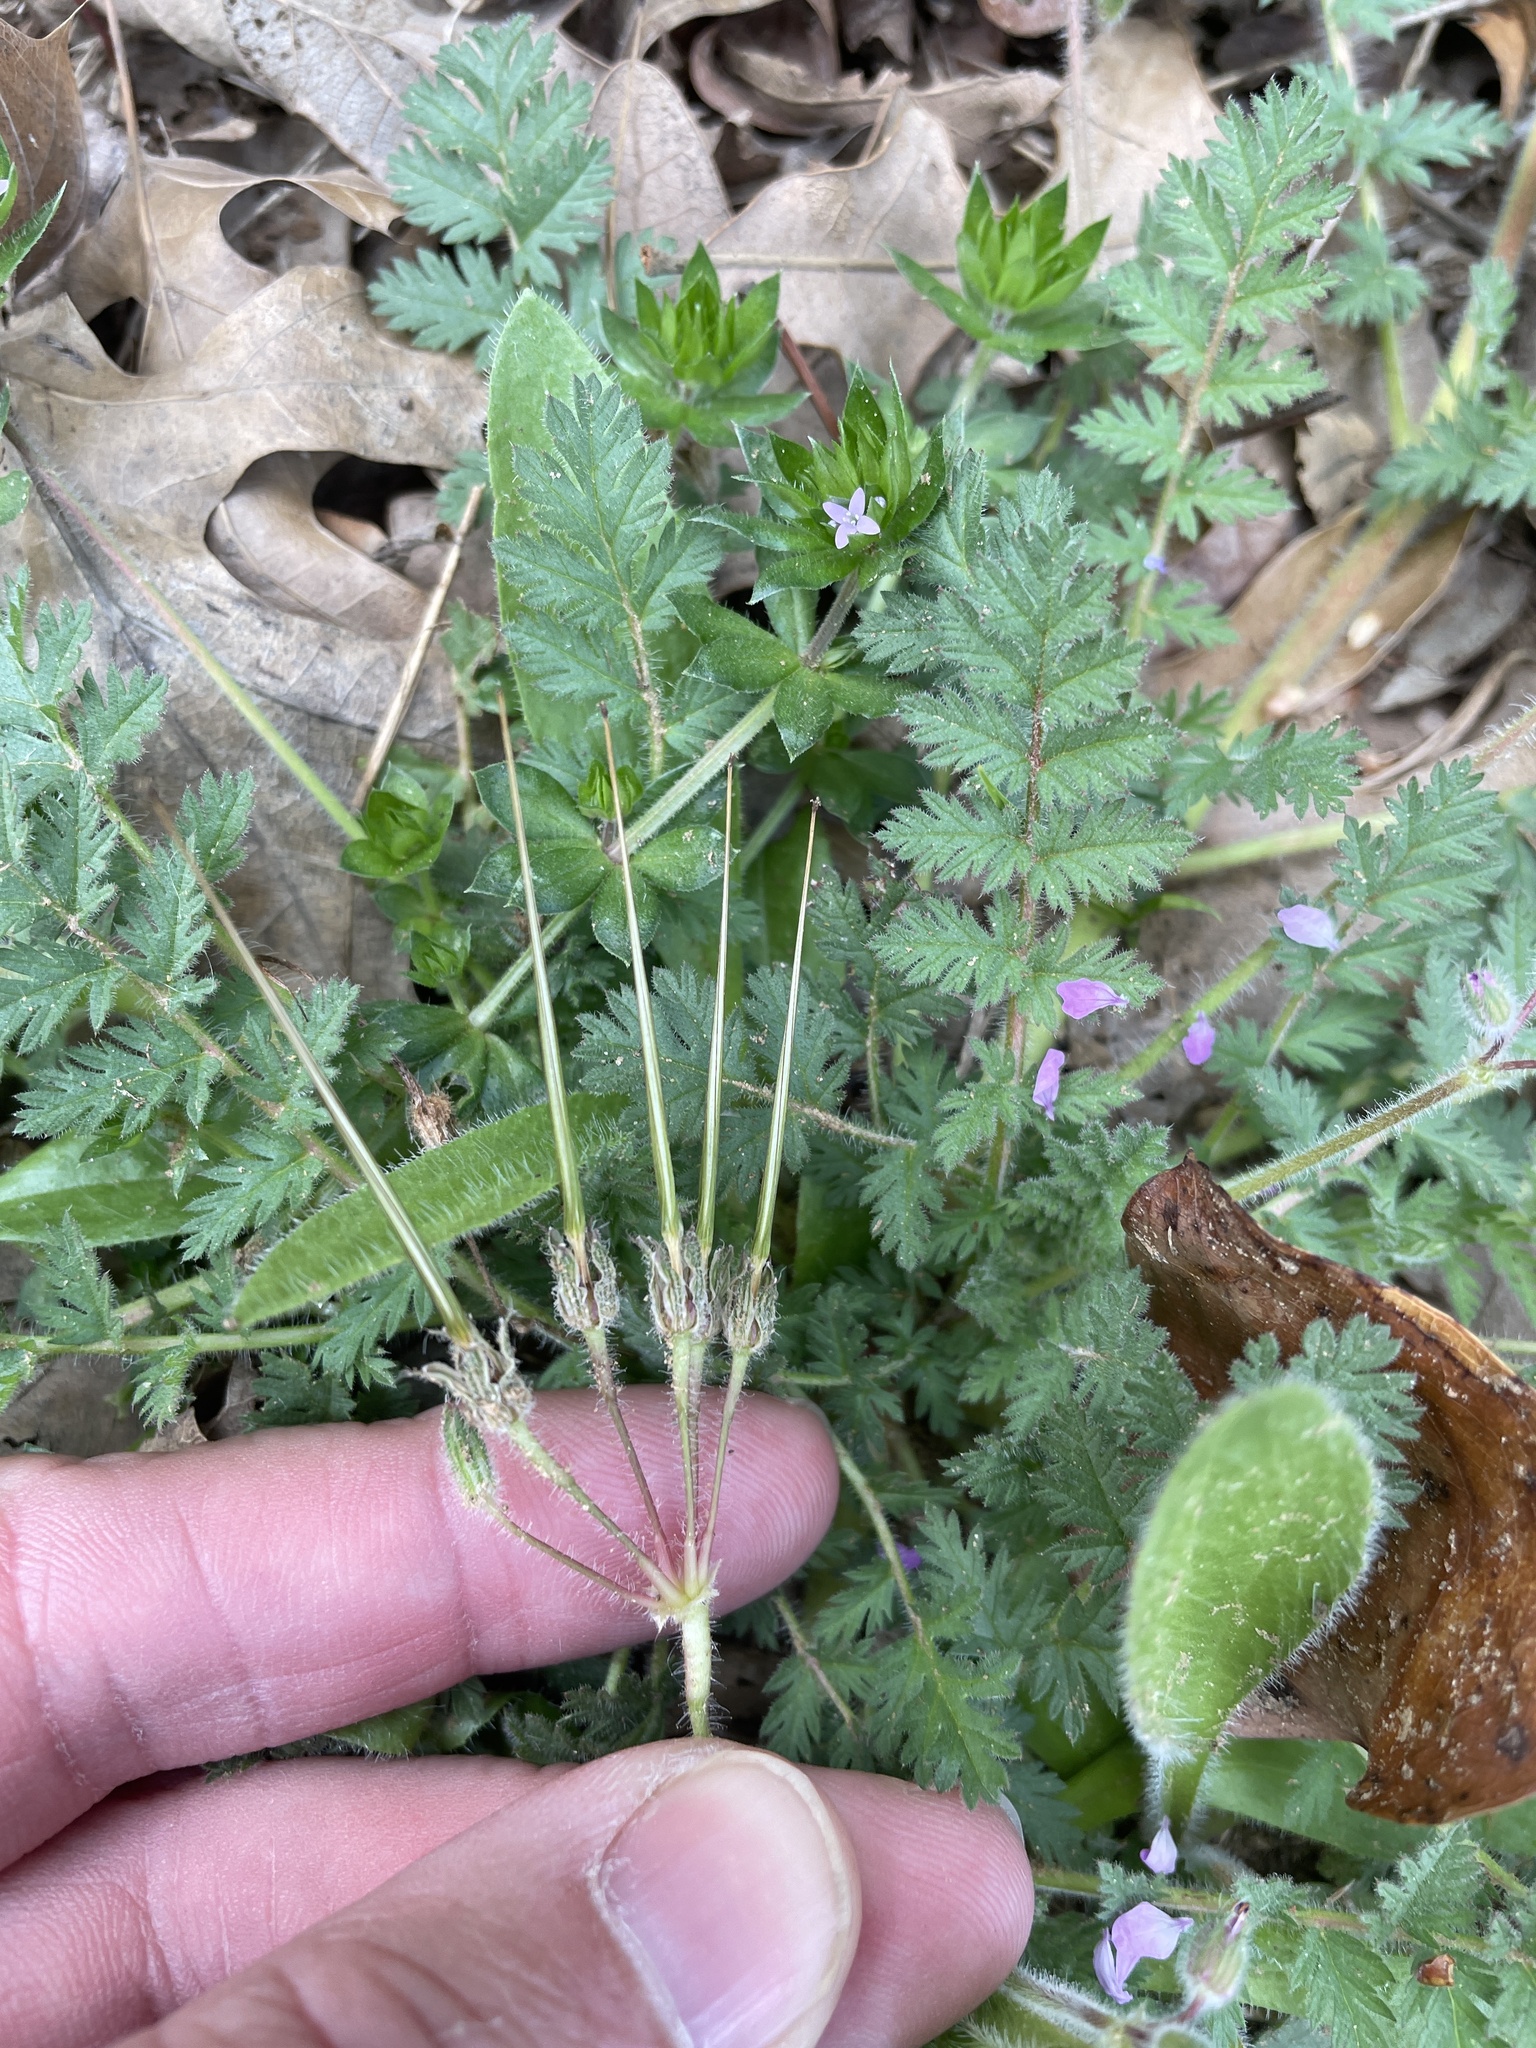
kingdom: Plantae
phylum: Tracheophyta
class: Magnoliopsida
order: Geraniales
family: Geraniaceae
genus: Erodium
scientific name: Erodium cicutarium
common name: Common stork's-bill
